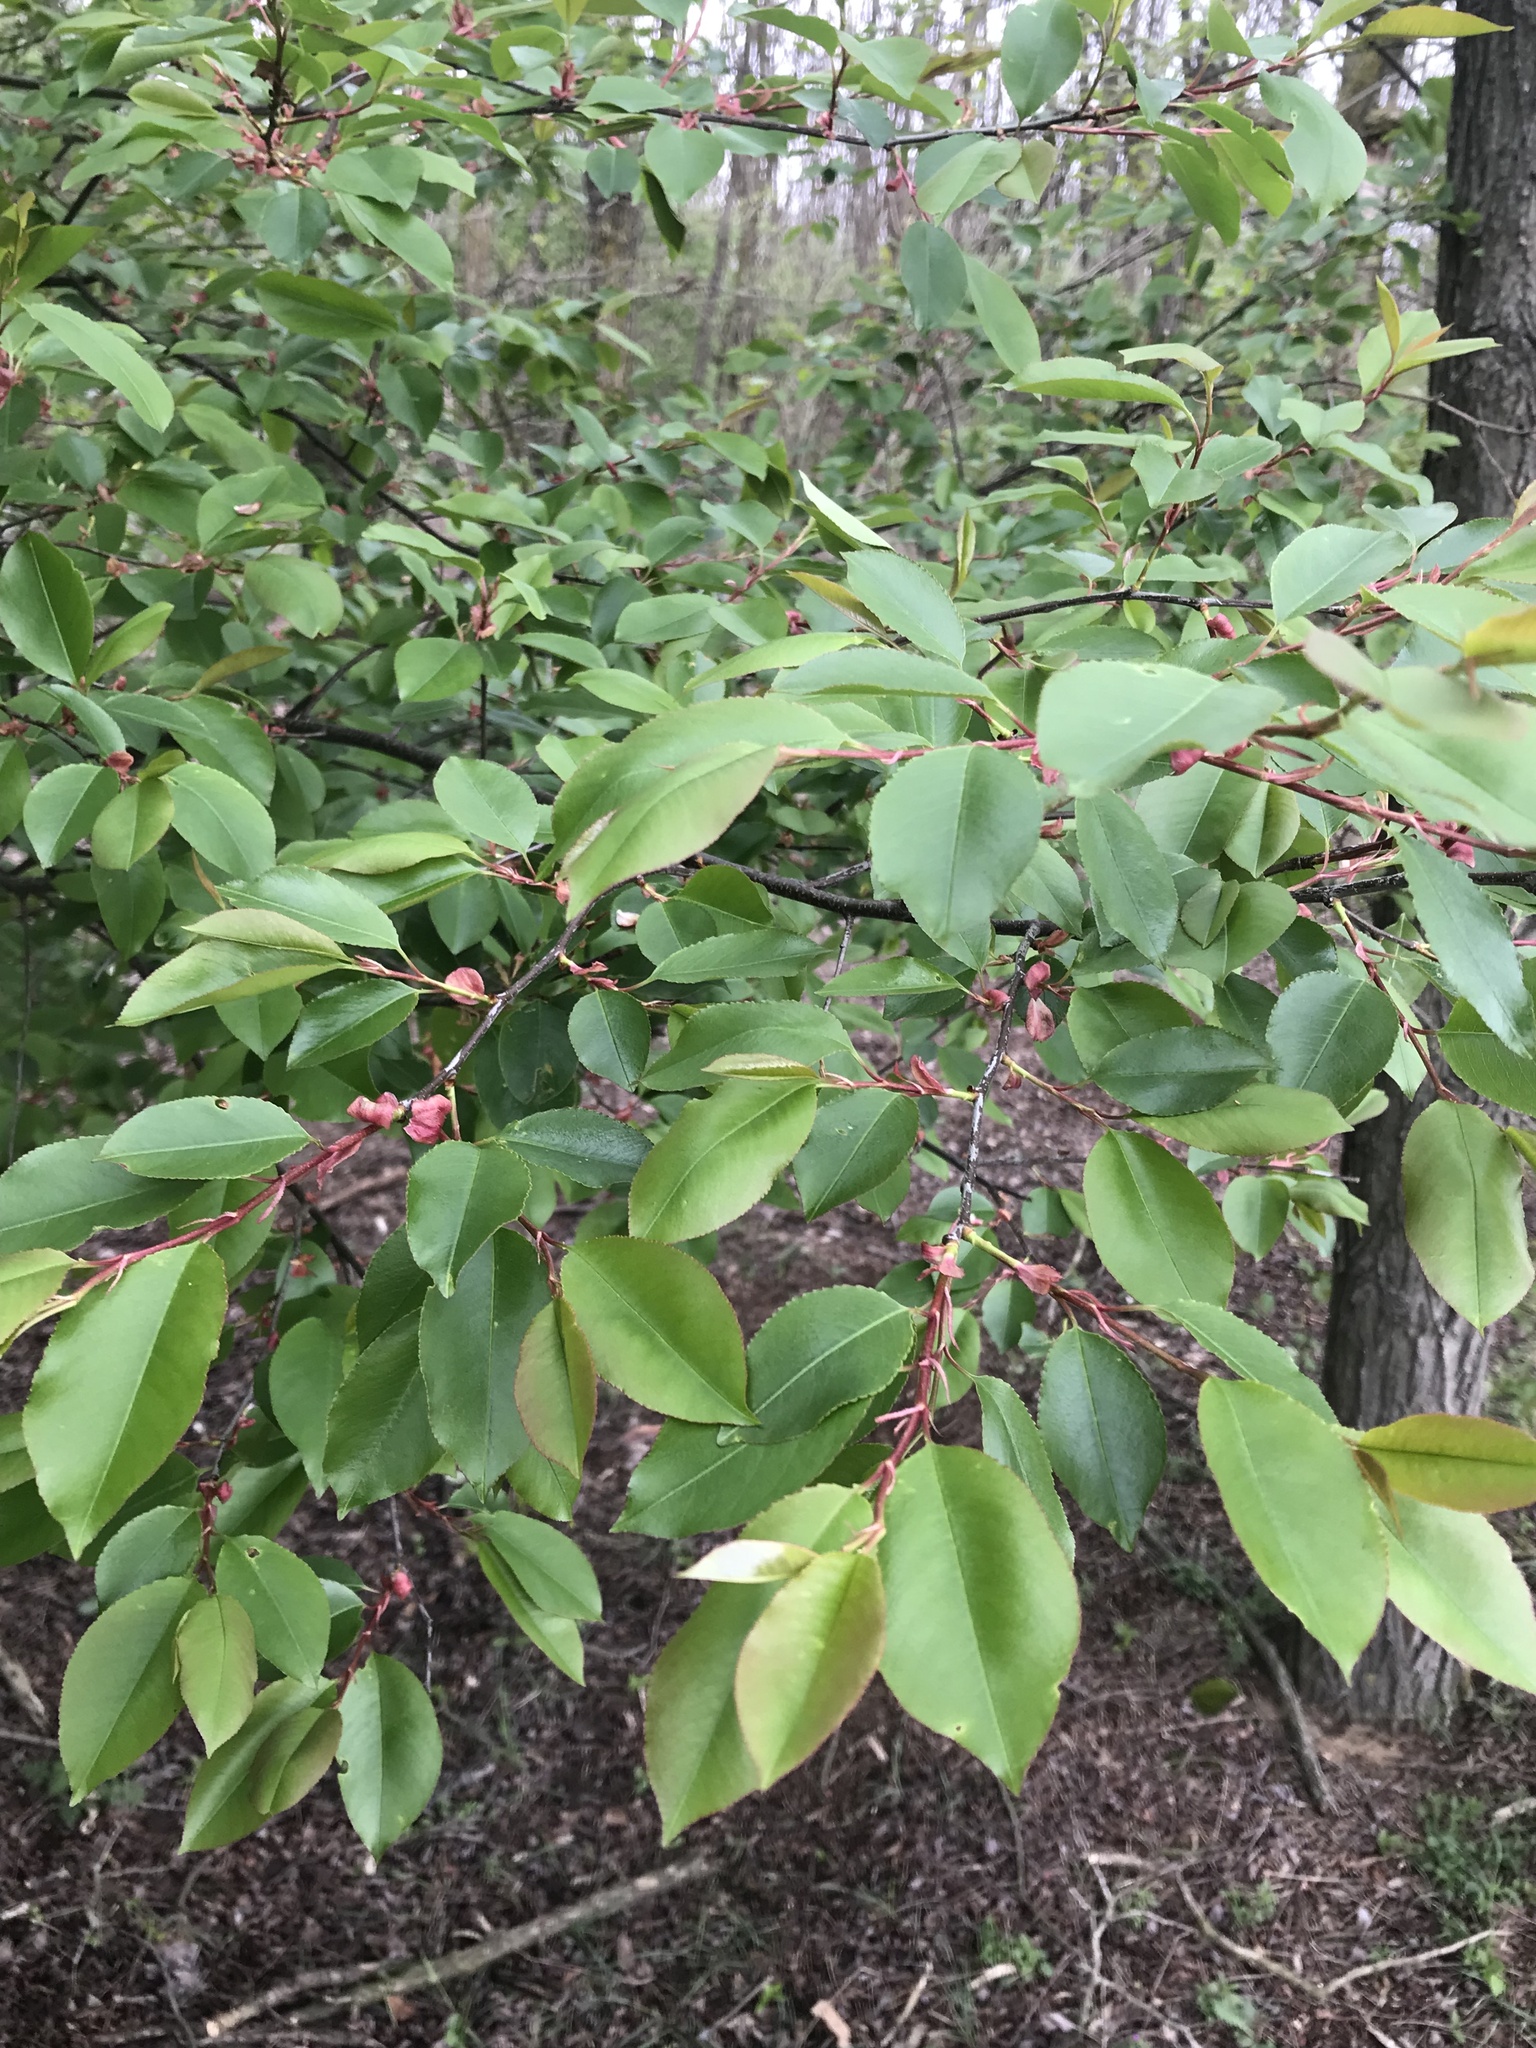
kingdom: Plantae
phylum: Tracheophyta
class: Magnoliopsida
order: Rosales
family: Rosaceae
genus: Prunus
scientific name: Prunus serotina
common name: Black cherry
